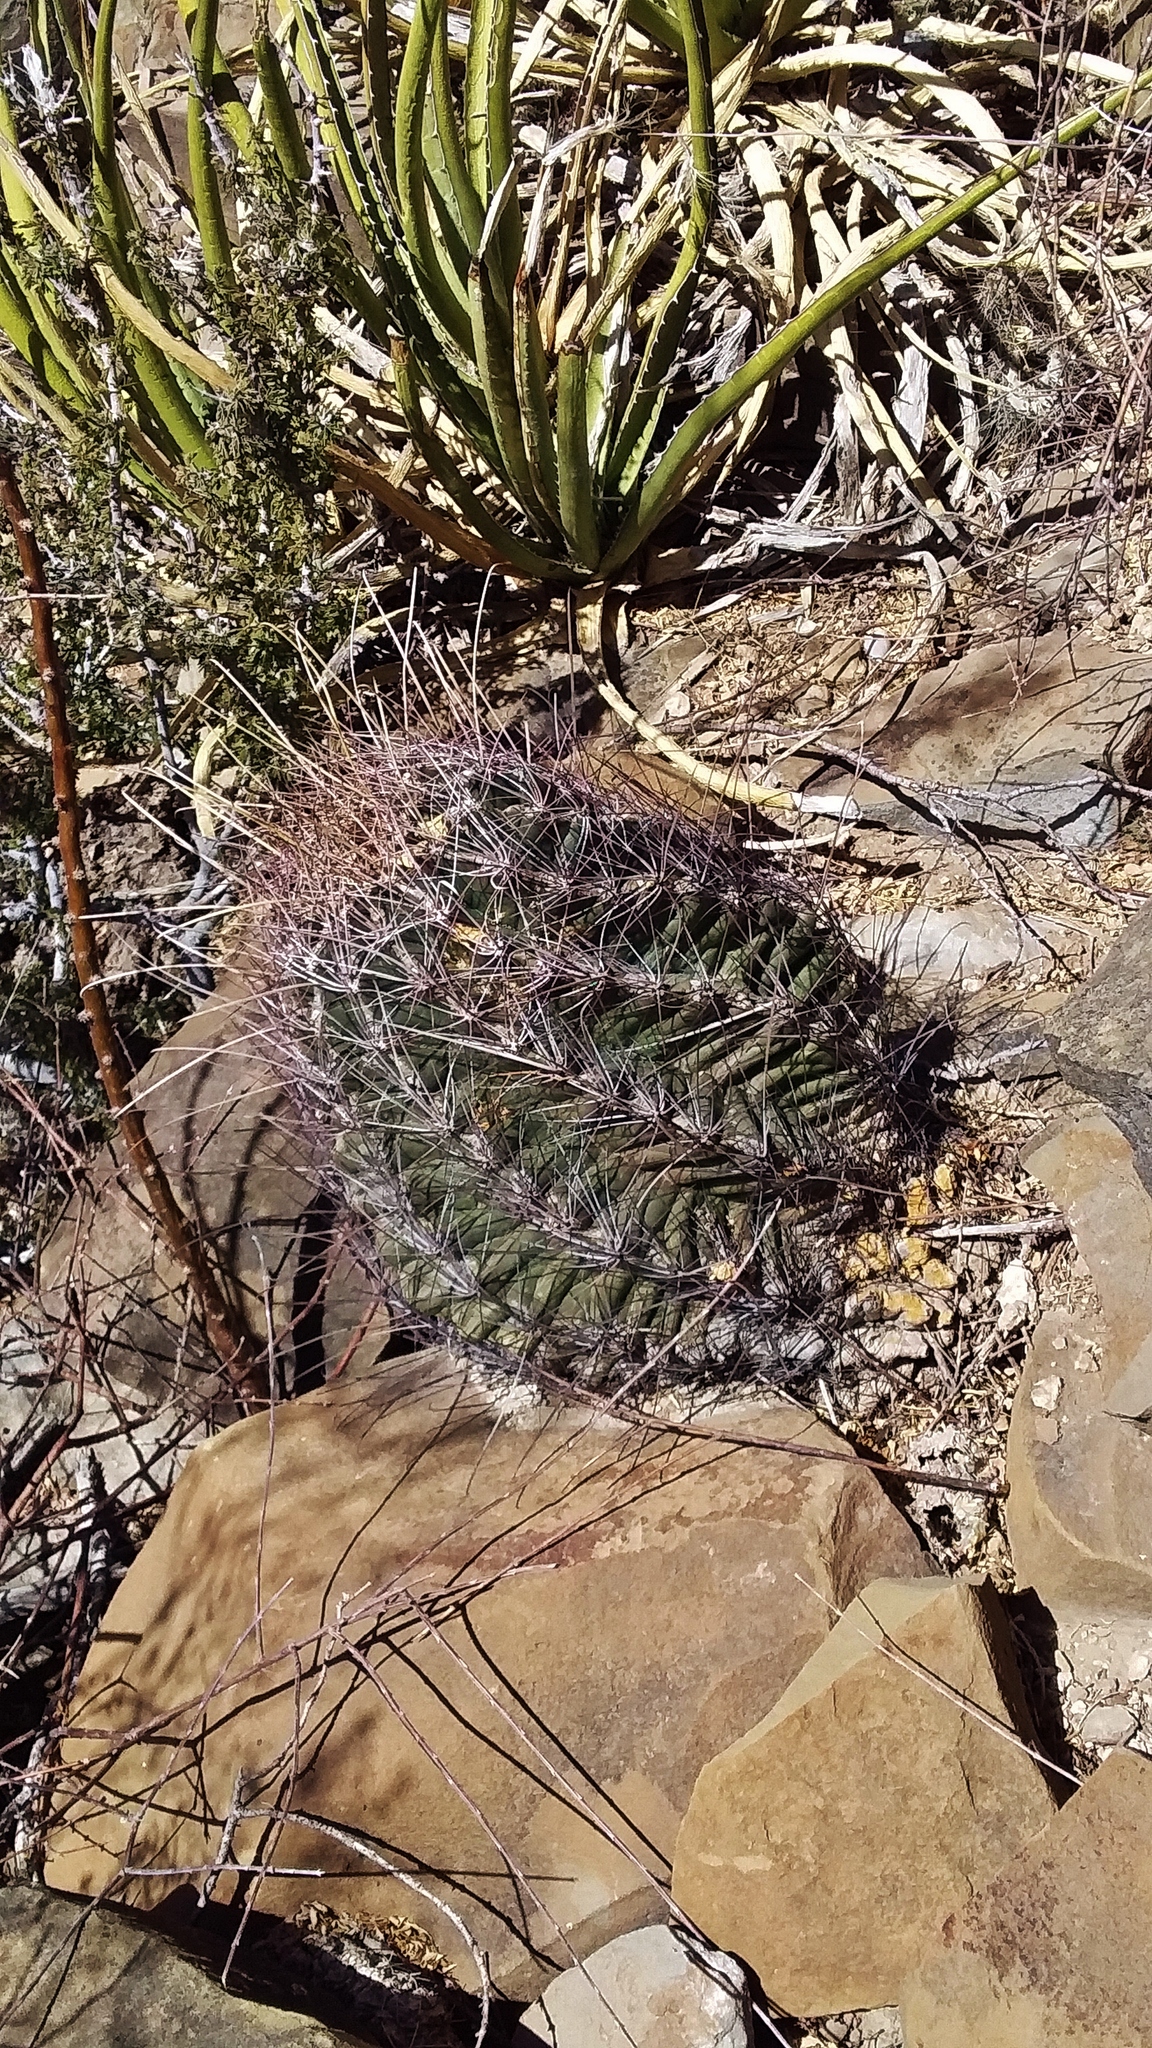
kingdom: Plantae
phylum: Tracheophyta
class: Magnoliopsida
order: Caryophyllales
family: Cactaceae
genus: Bisnaga
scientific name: Bisnaga hamatacantha
